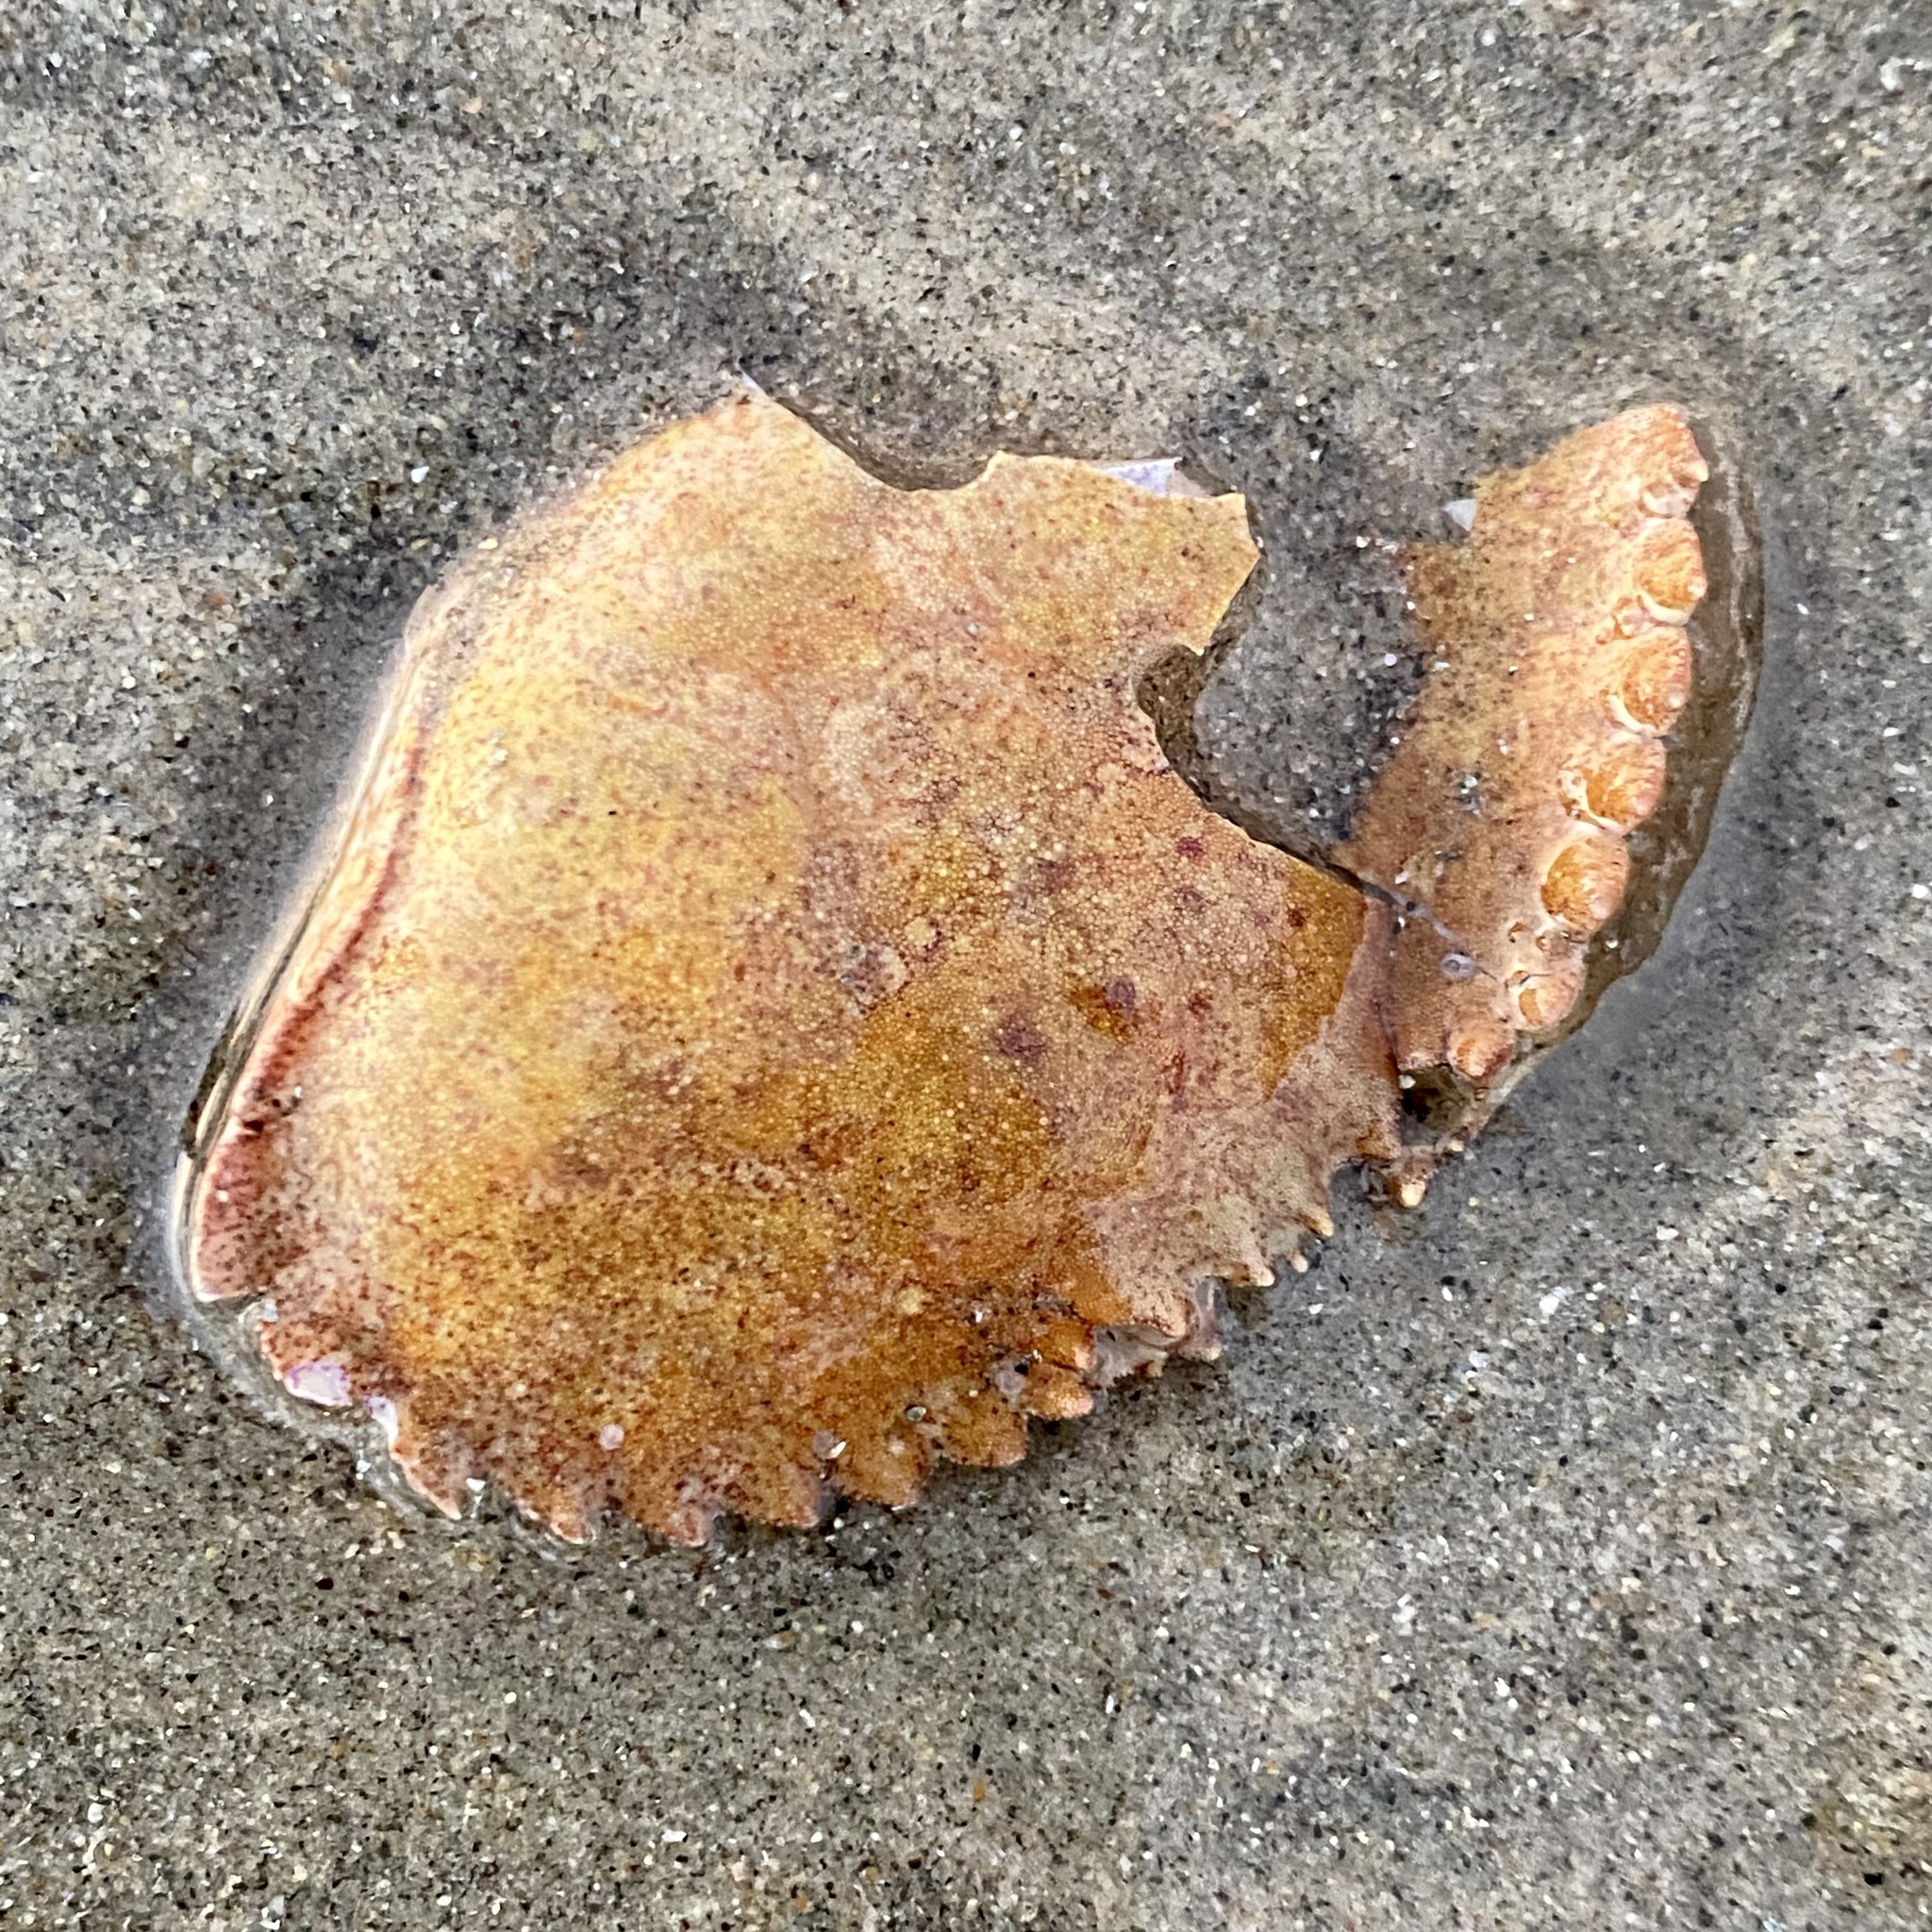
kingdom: Animalia
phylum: Arthropoda
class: Malacostraca
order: Decapoda
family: Cancridae
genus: Metacarcinus
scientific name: Metacarcinus anthonyi
